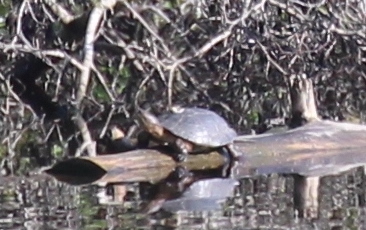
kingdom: Animalia
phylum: Chordata
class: Testudines
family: Emydidae
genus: Actinemys
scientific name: Actinemys marmorata
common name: Western pond turtle
